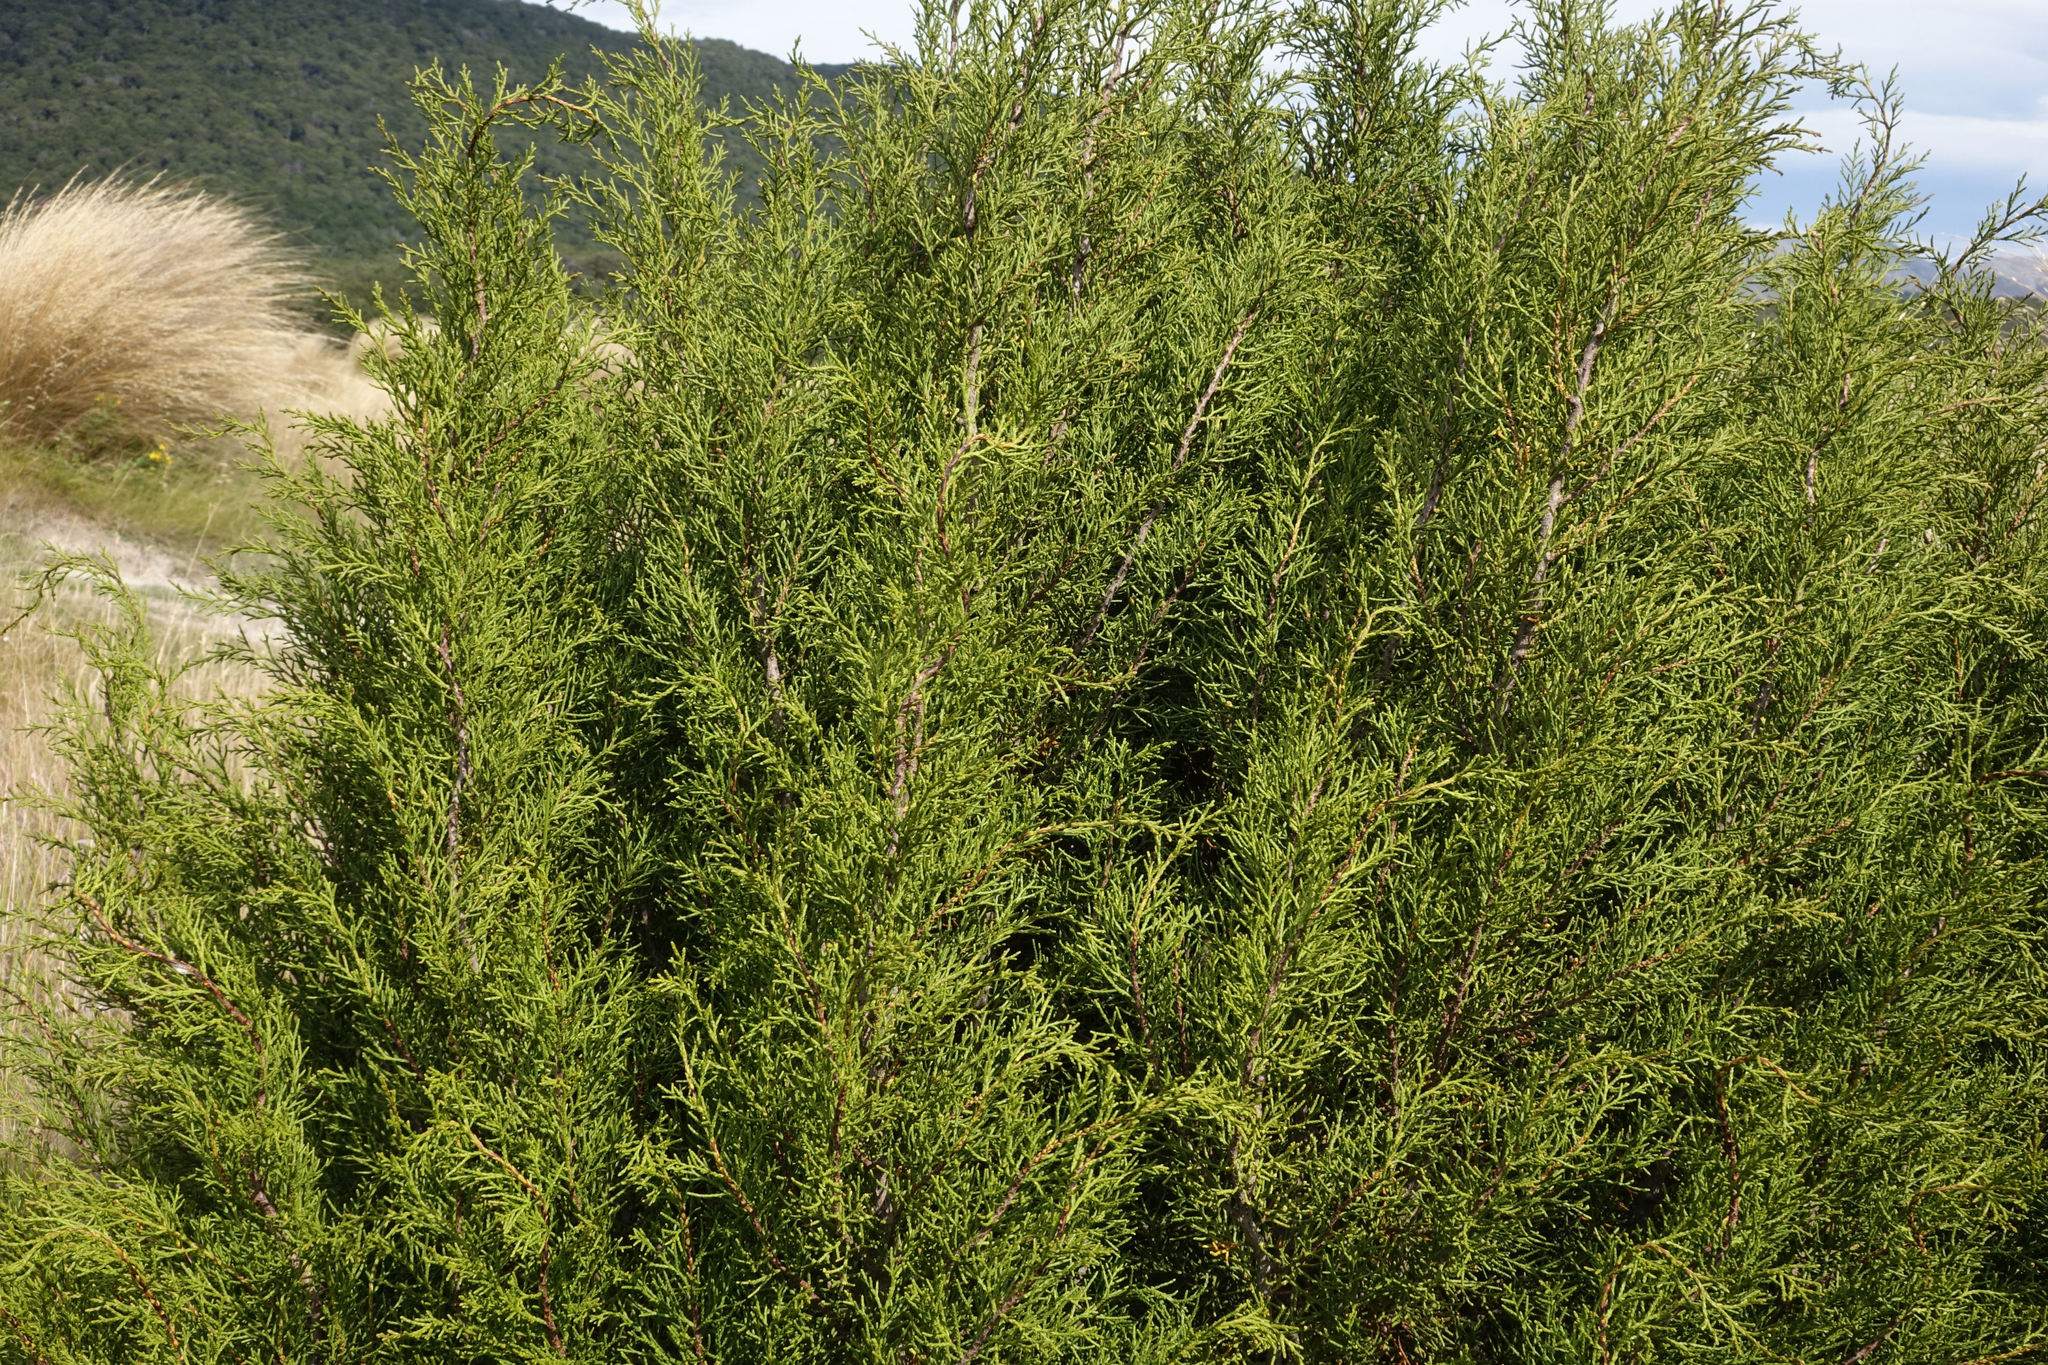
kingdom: Plantae
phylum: Tracheophyta
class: Pinopsida
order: Pinales
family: Podocarpaceae
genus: Halocarpus
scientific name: Halocarpus bidwillii
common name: Bog pine
